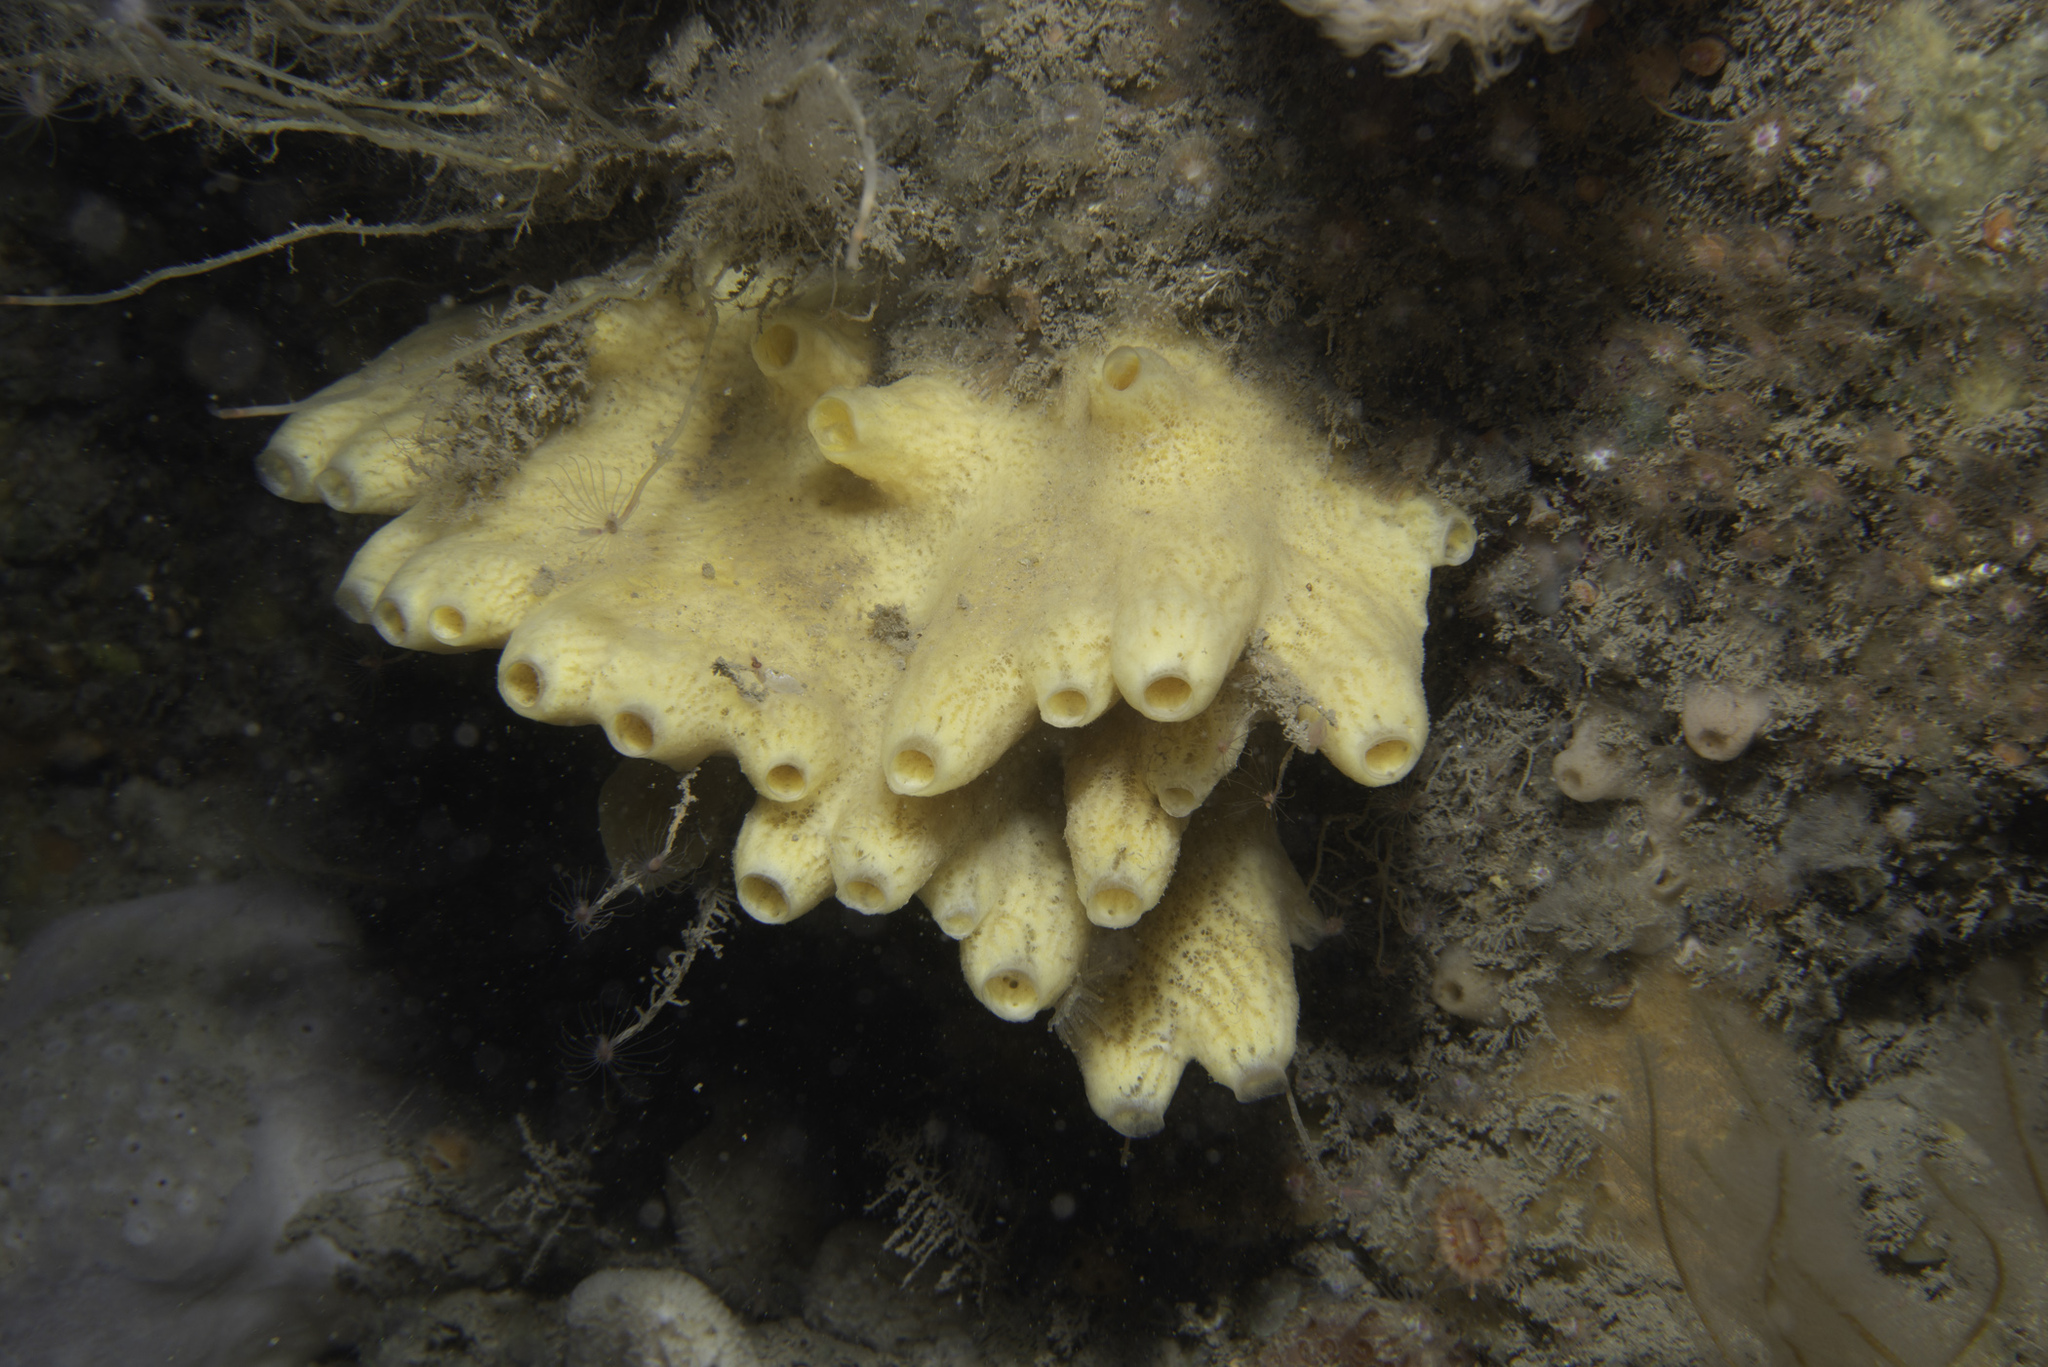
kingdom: Animalia
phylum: Porifera
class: Demospongiae
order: Poecilosclerida
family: Myxillidae
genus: Myxilla
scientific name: Myxilla incrustans
